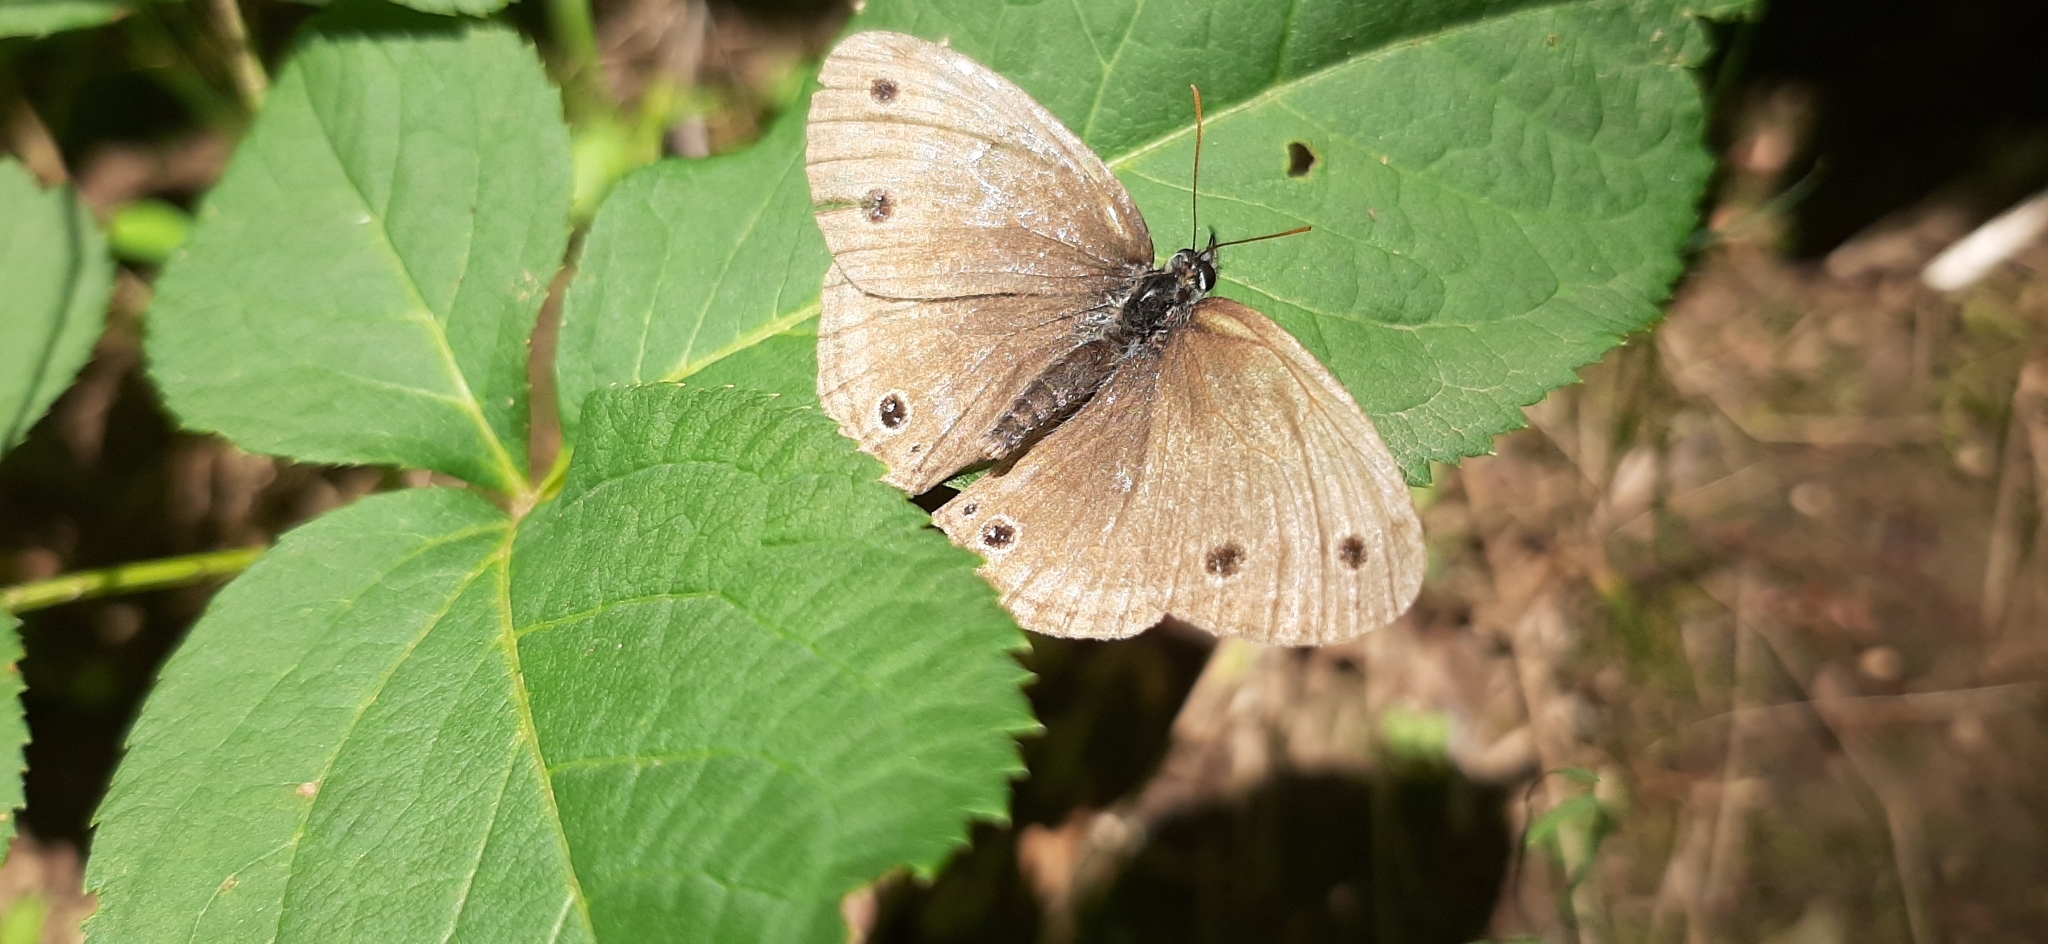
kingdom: Animalia
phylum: Arthropoda
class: Insecta
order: Lepidoptera
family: Nymphalidae
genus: Euptychia
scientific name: Euptychia cymela
